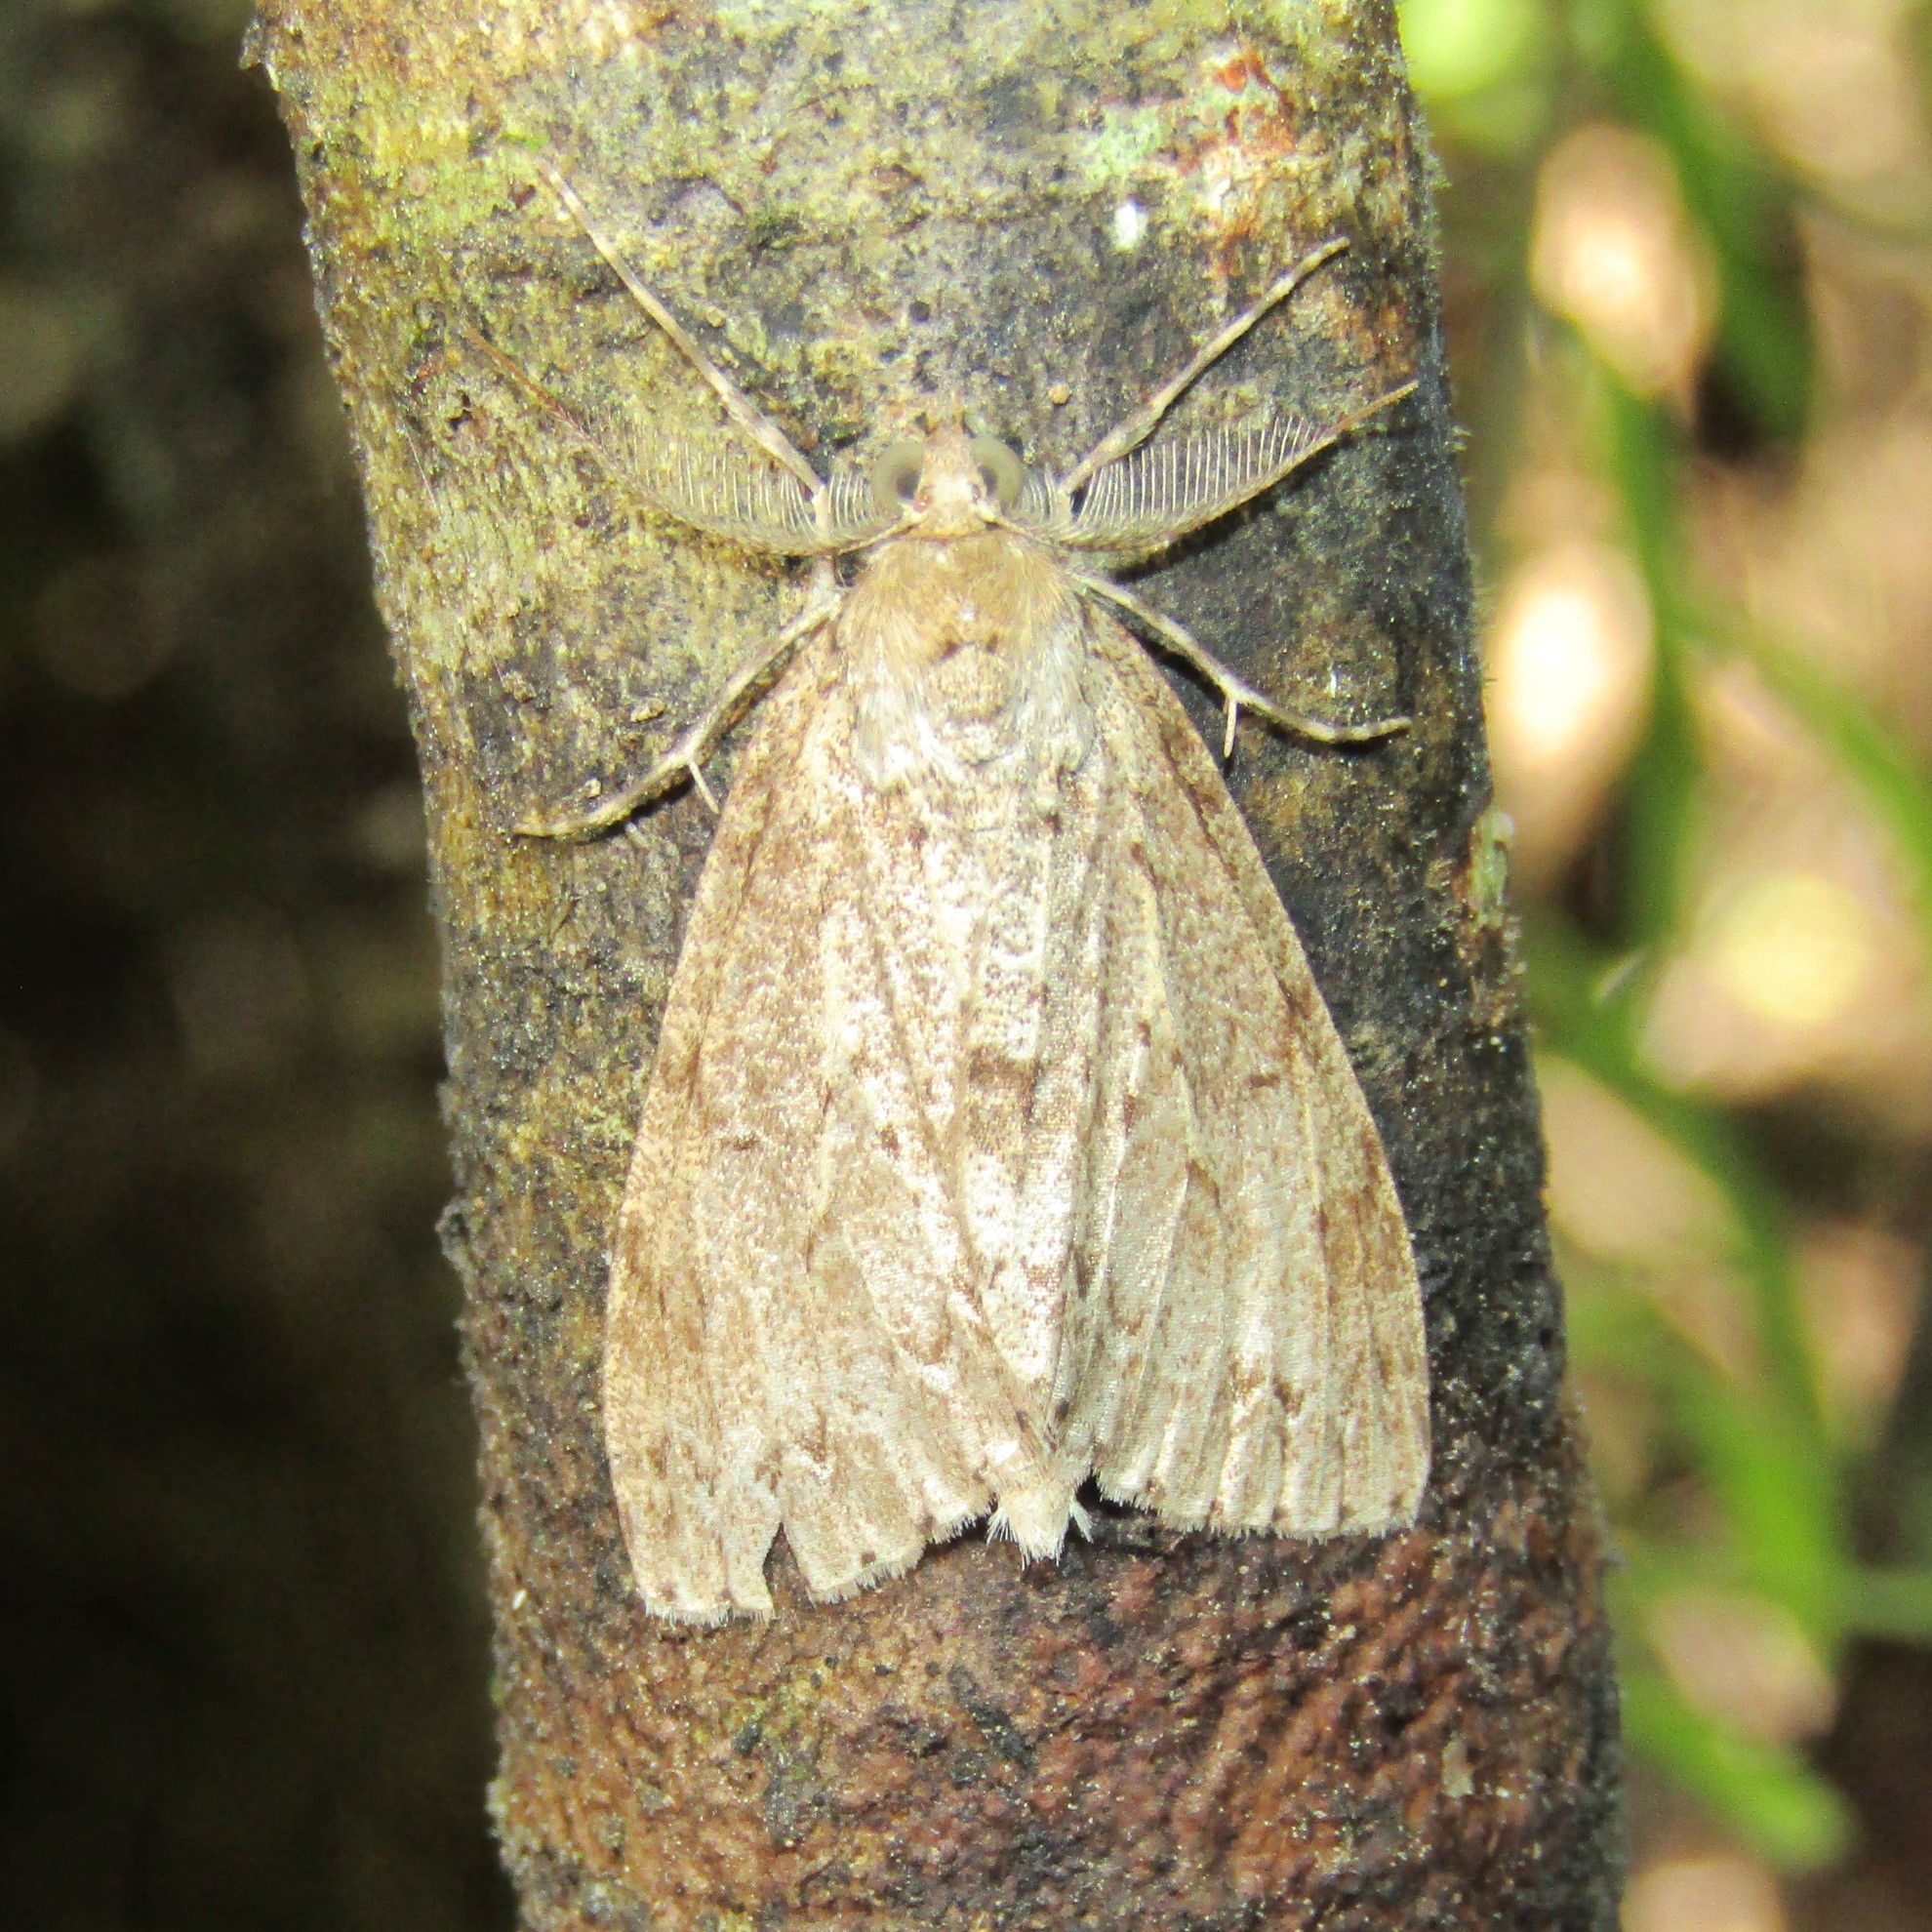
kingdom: Animalia
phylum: Arthropoda
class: Insecta
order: Lepidoptera
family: Geometridae
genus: Pseudocoremia
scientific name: Pseudocoremia fenerata
